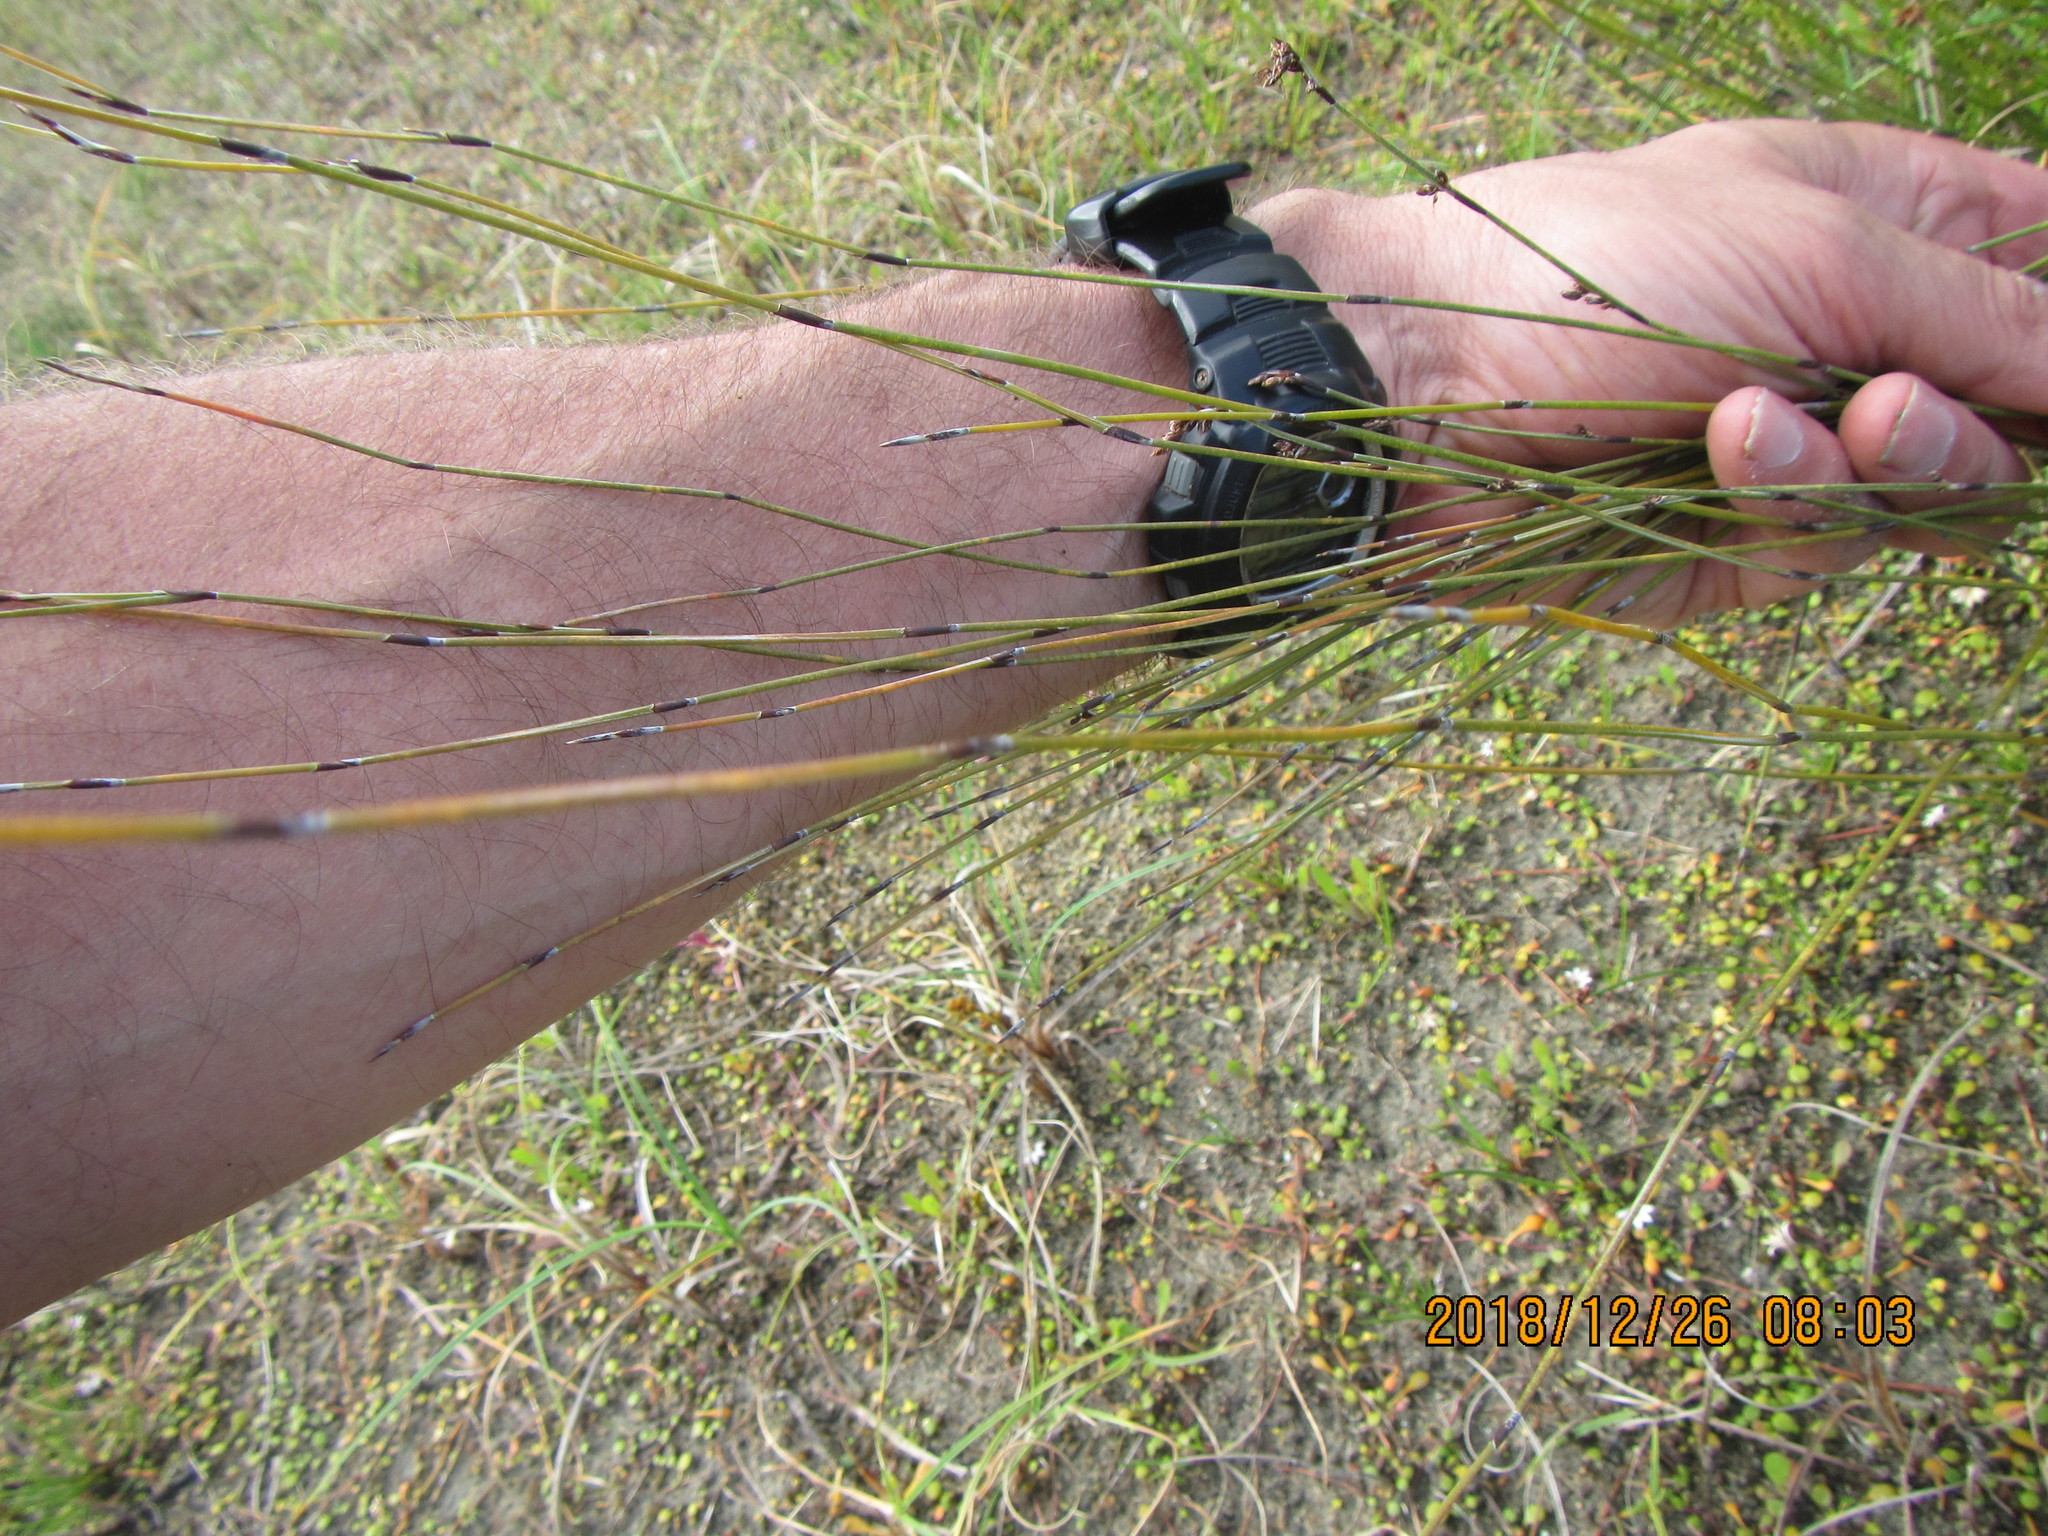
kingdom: Plantae
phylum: Tracheophyta
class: Liliopsida
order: Poales
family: Restionaceae
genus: Apodasmia
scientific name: Apodasmia similis
